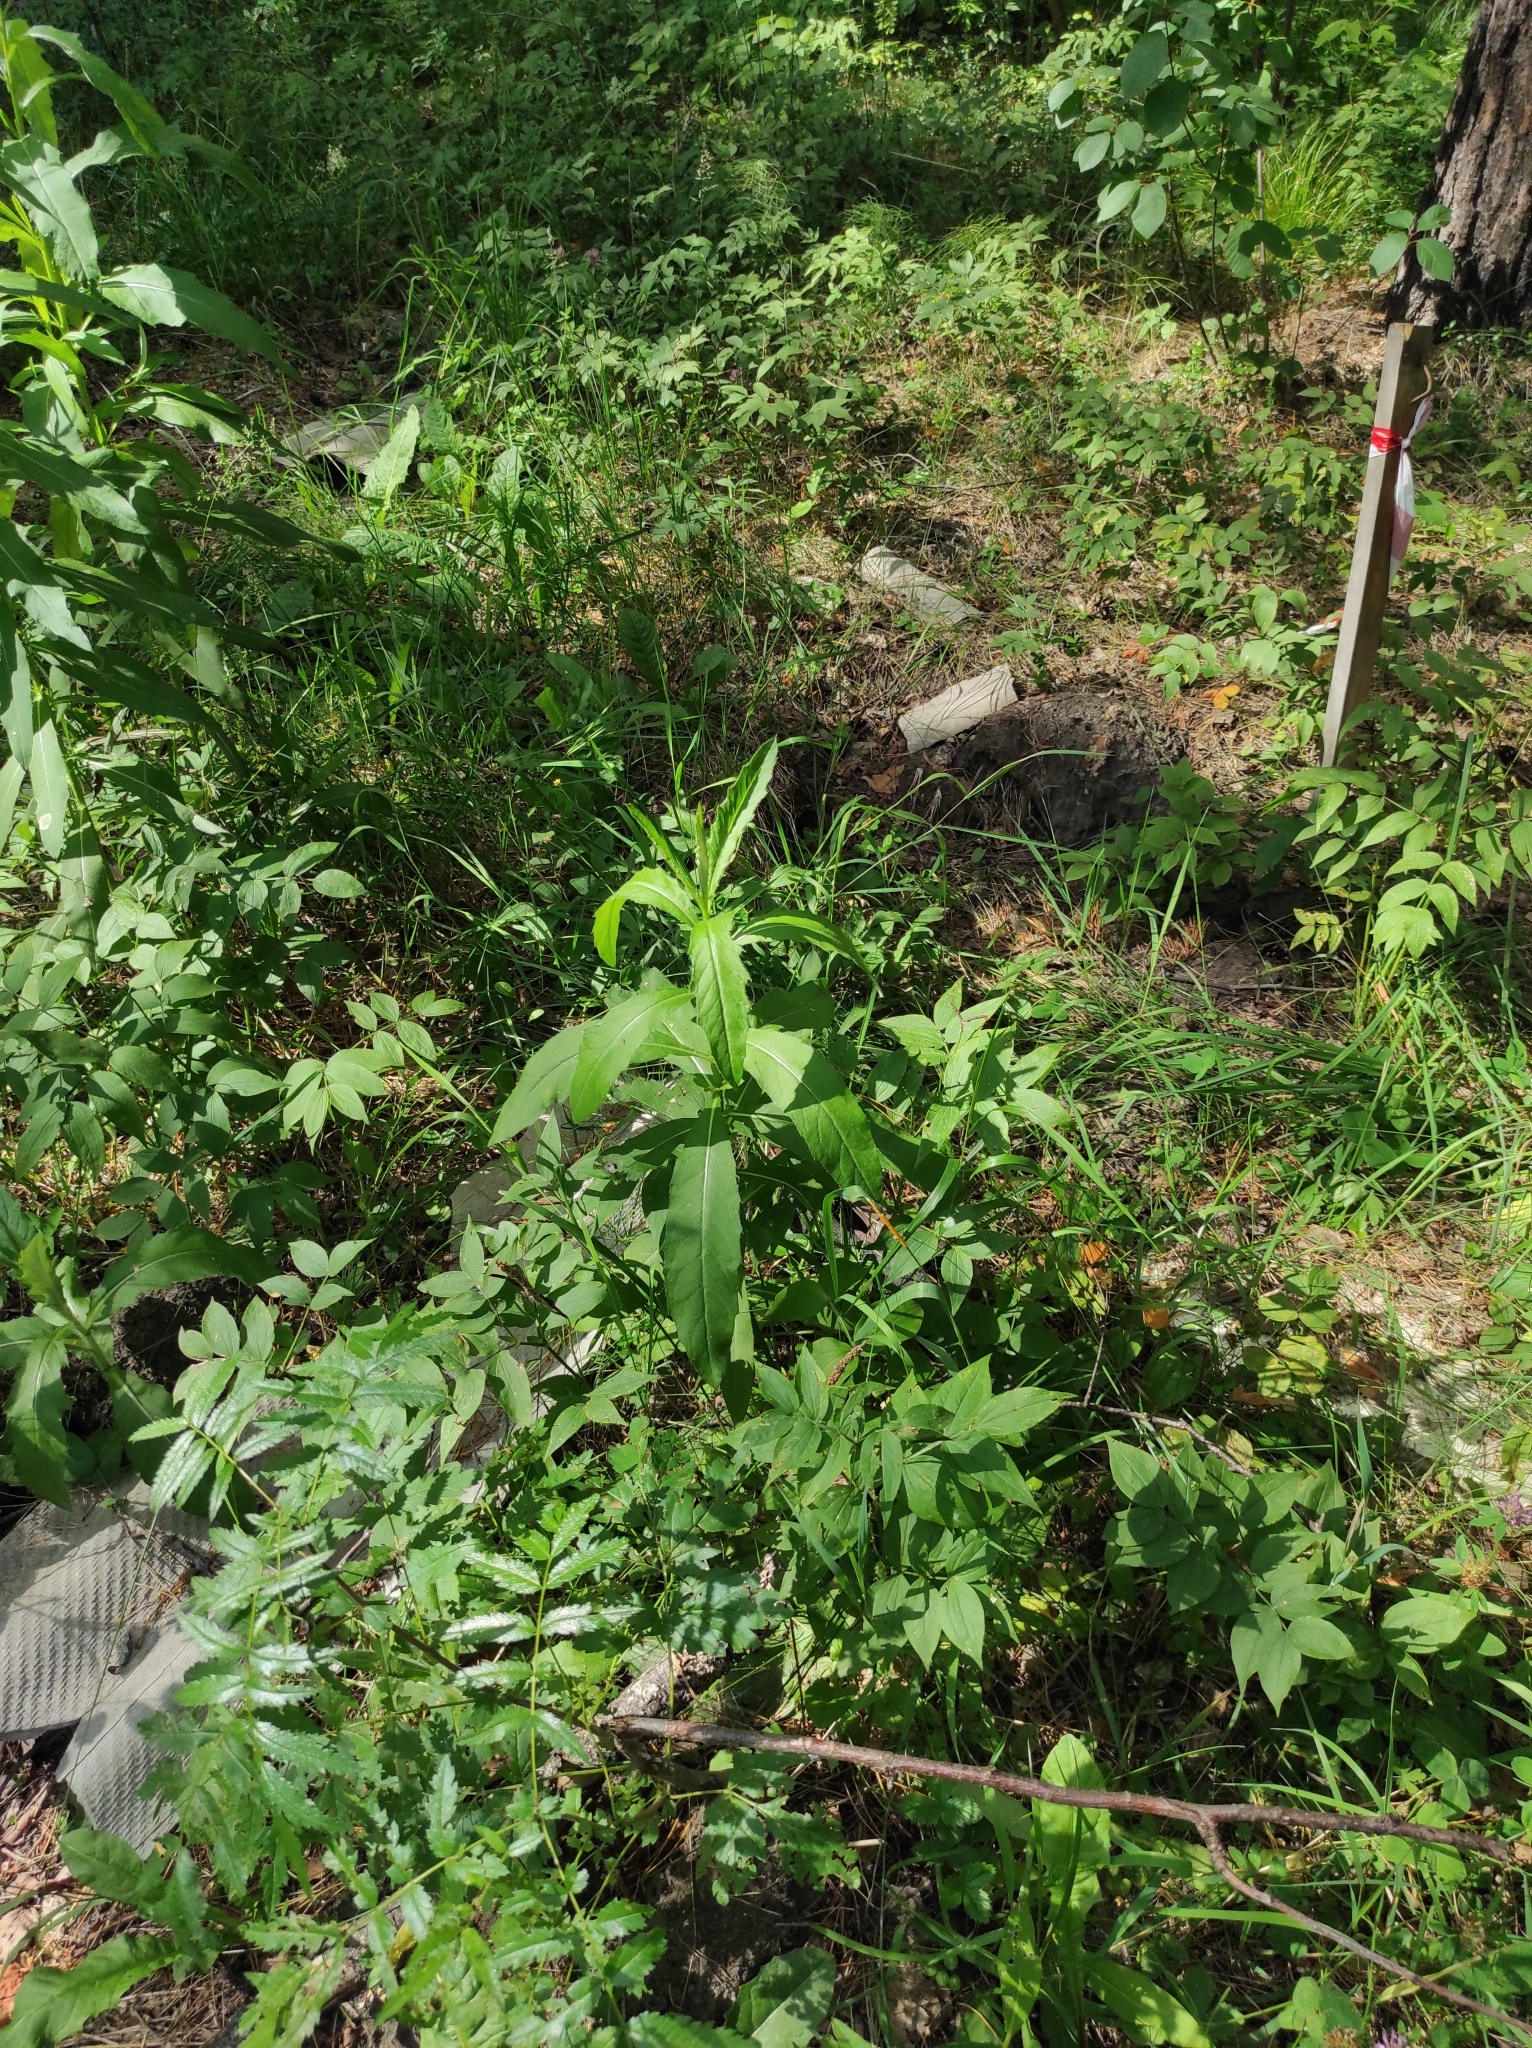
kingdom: Plantae
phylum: Tracheophyta
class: Magnoliopsida
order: Asterales
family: Asteraceae
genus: Cirsium
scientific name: Cirsium arvense
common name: Creeping thistle
